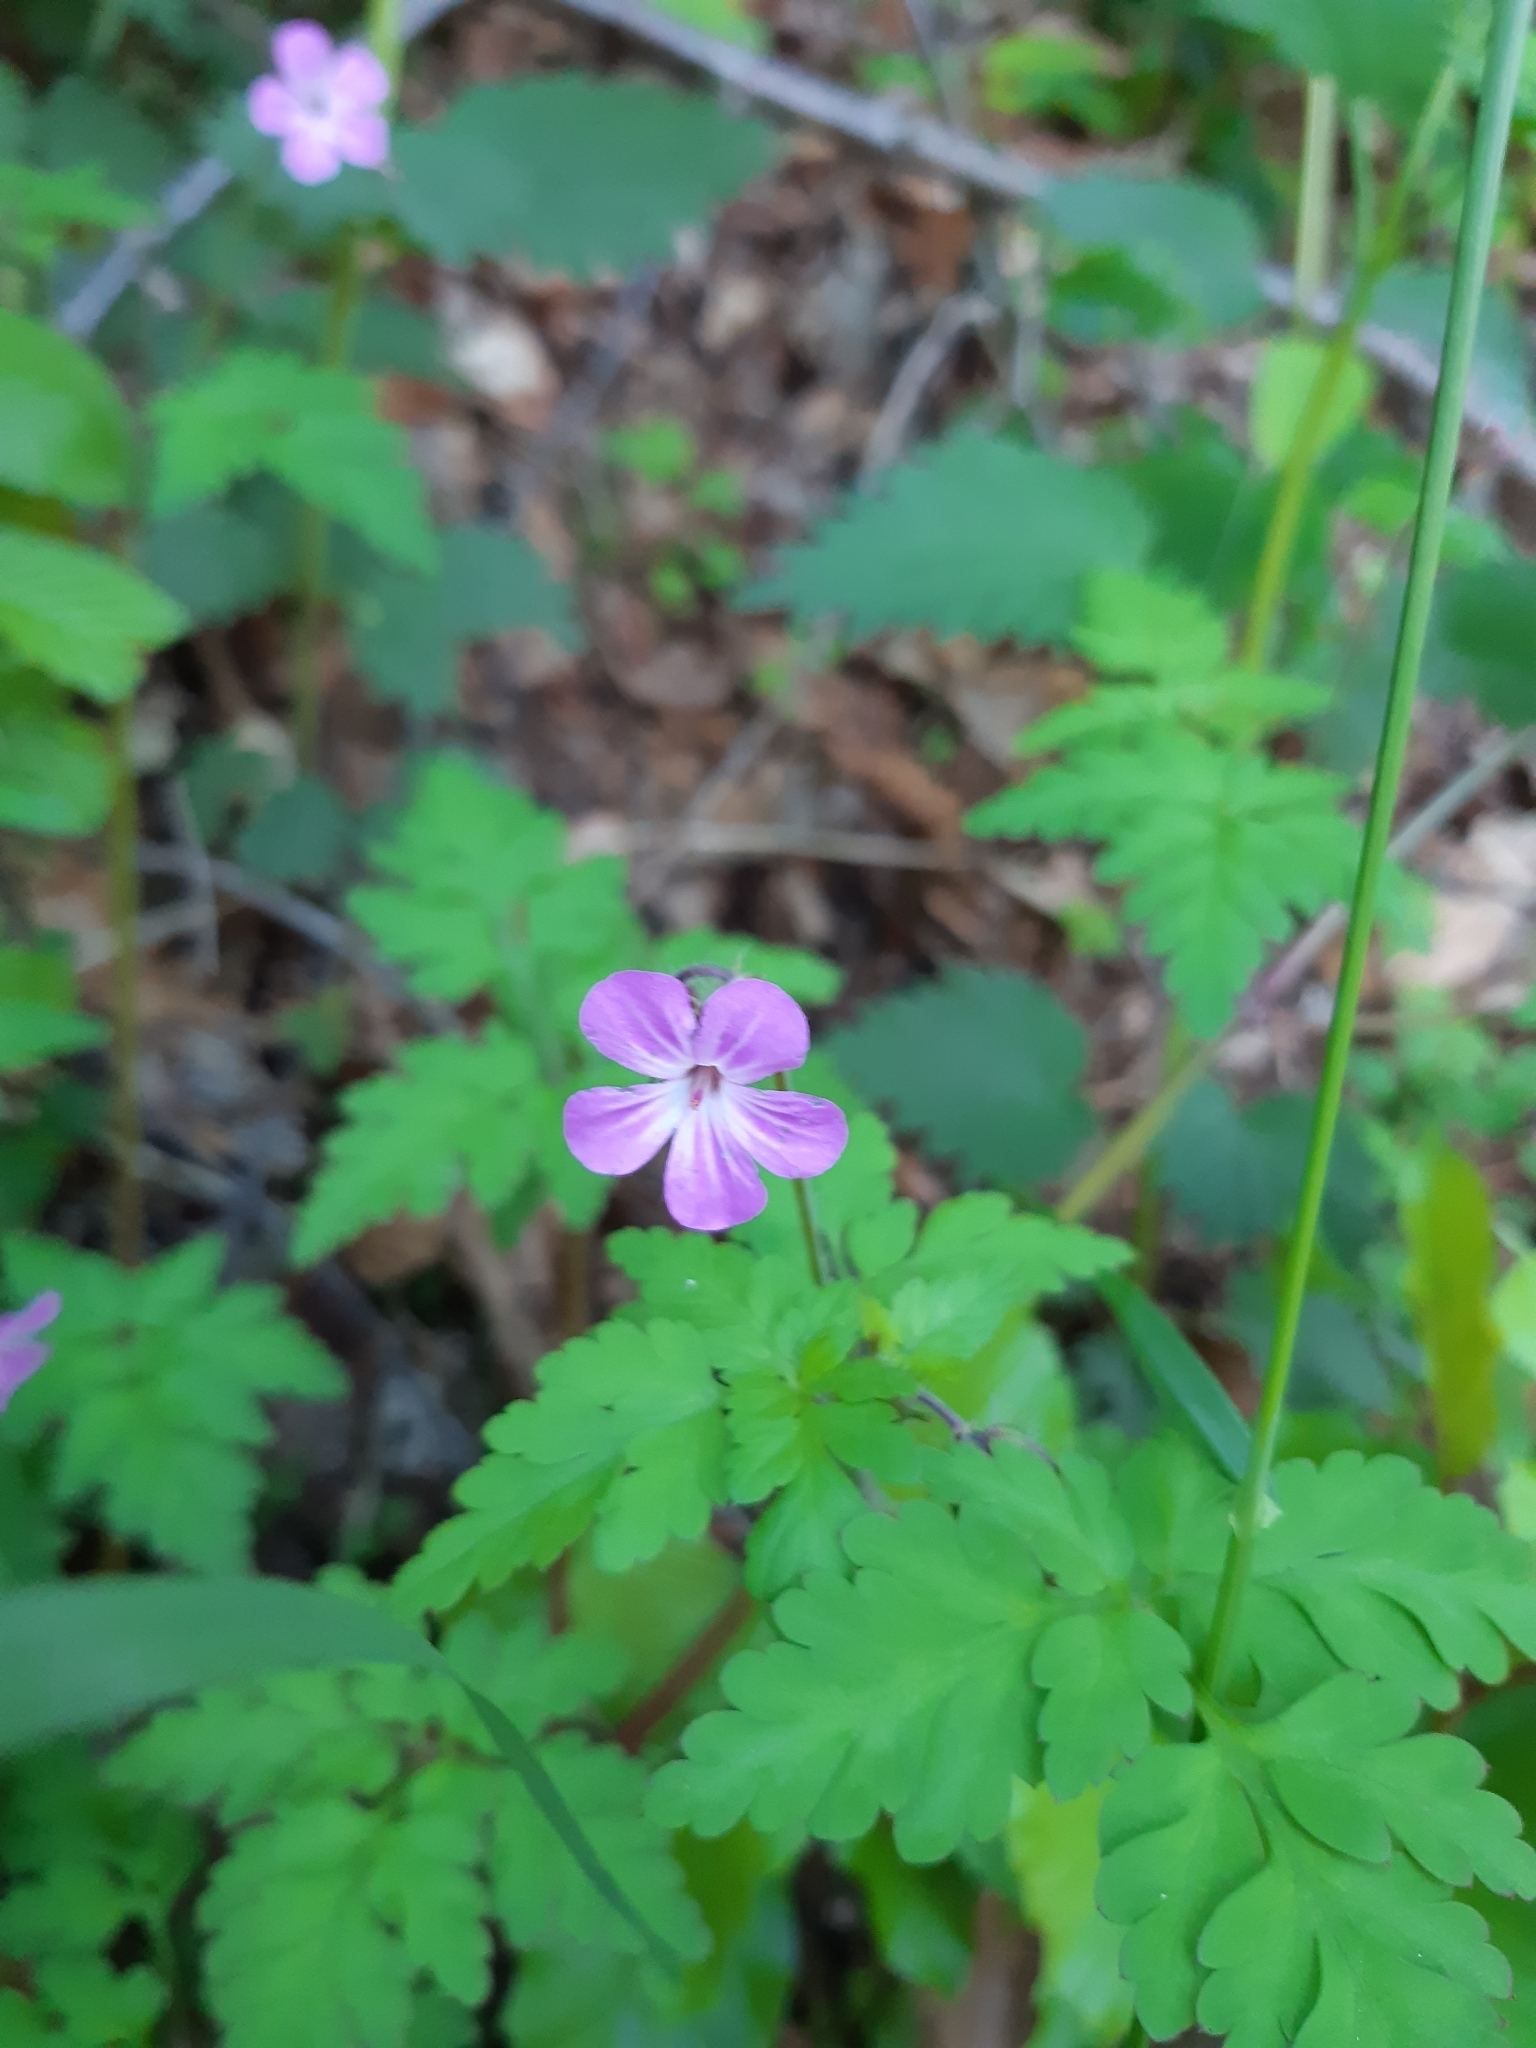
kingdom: Plantae
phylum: Tracheophyta
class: Magnoliopsida
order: Geraniales
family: Geraniaceae
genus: Geranium
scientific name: Geranium robertianum
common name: Herb-robert
